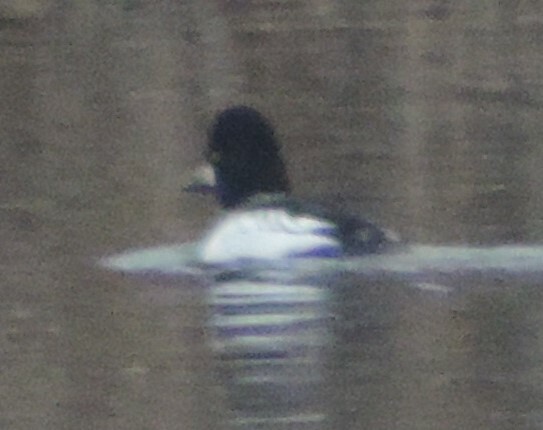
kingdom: Animalia
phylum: Chordata
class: Aves
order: Anseriformes
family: Anatidae
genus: Bucephala
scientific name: Bucephala clangula
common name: Common goldeneye
